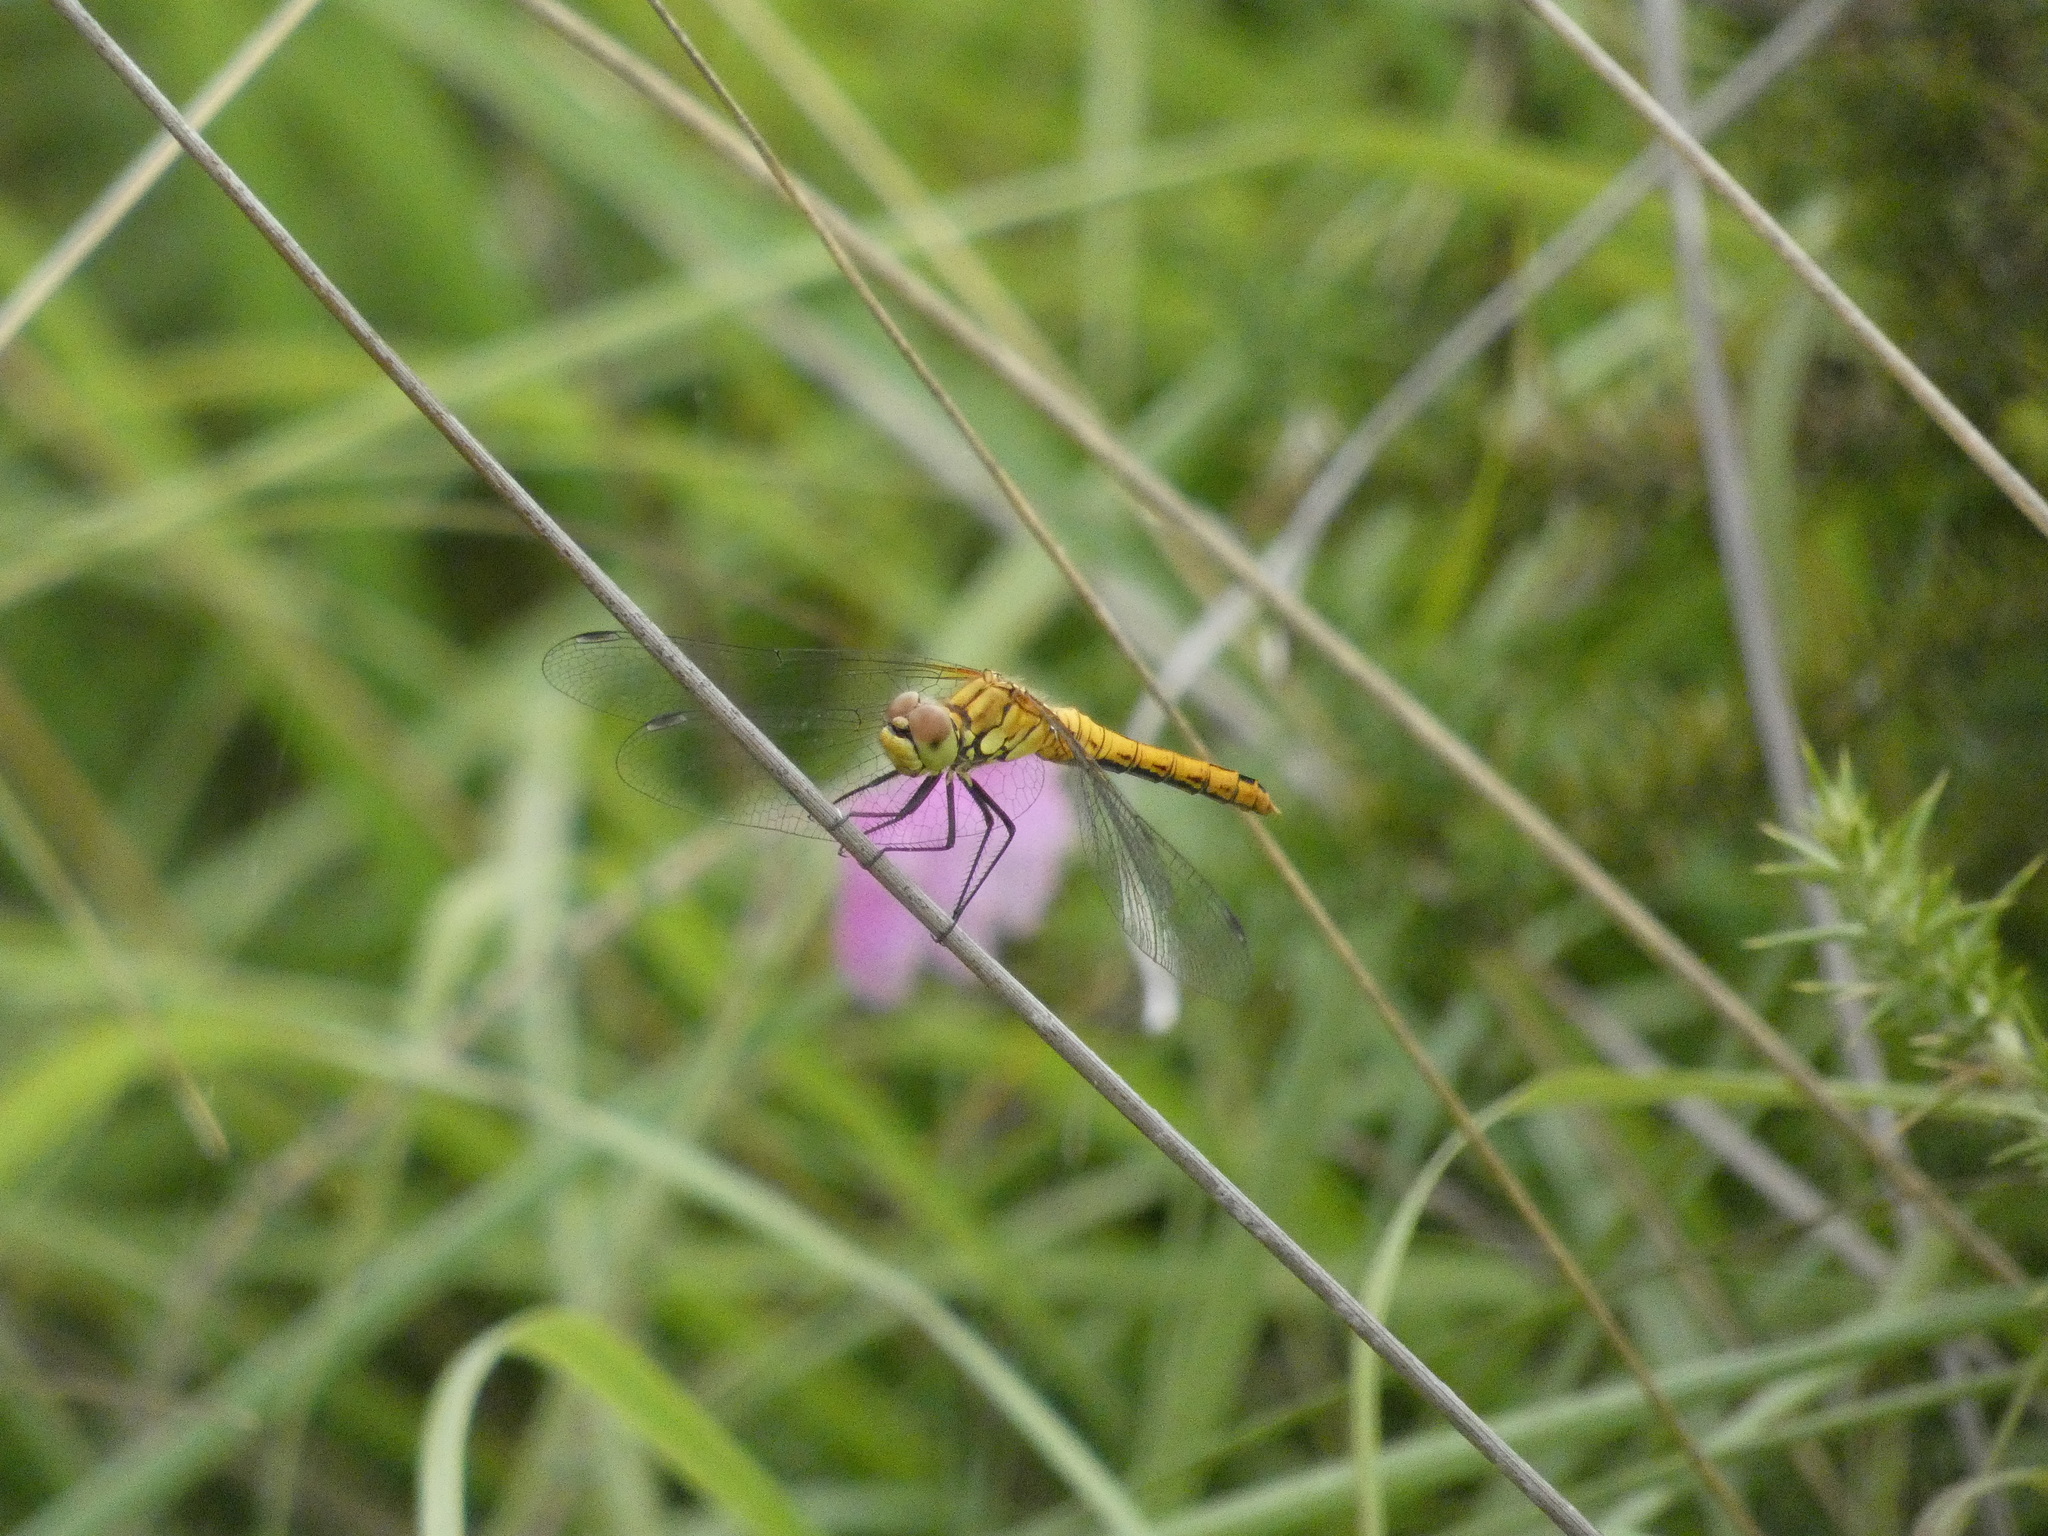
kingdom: Animalia
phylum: Arthropoda
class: Insecta
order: Odonata
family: Libellulidae
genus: Sympetrum
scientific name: Sympetrum sanguineum
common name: Ruddy darter
